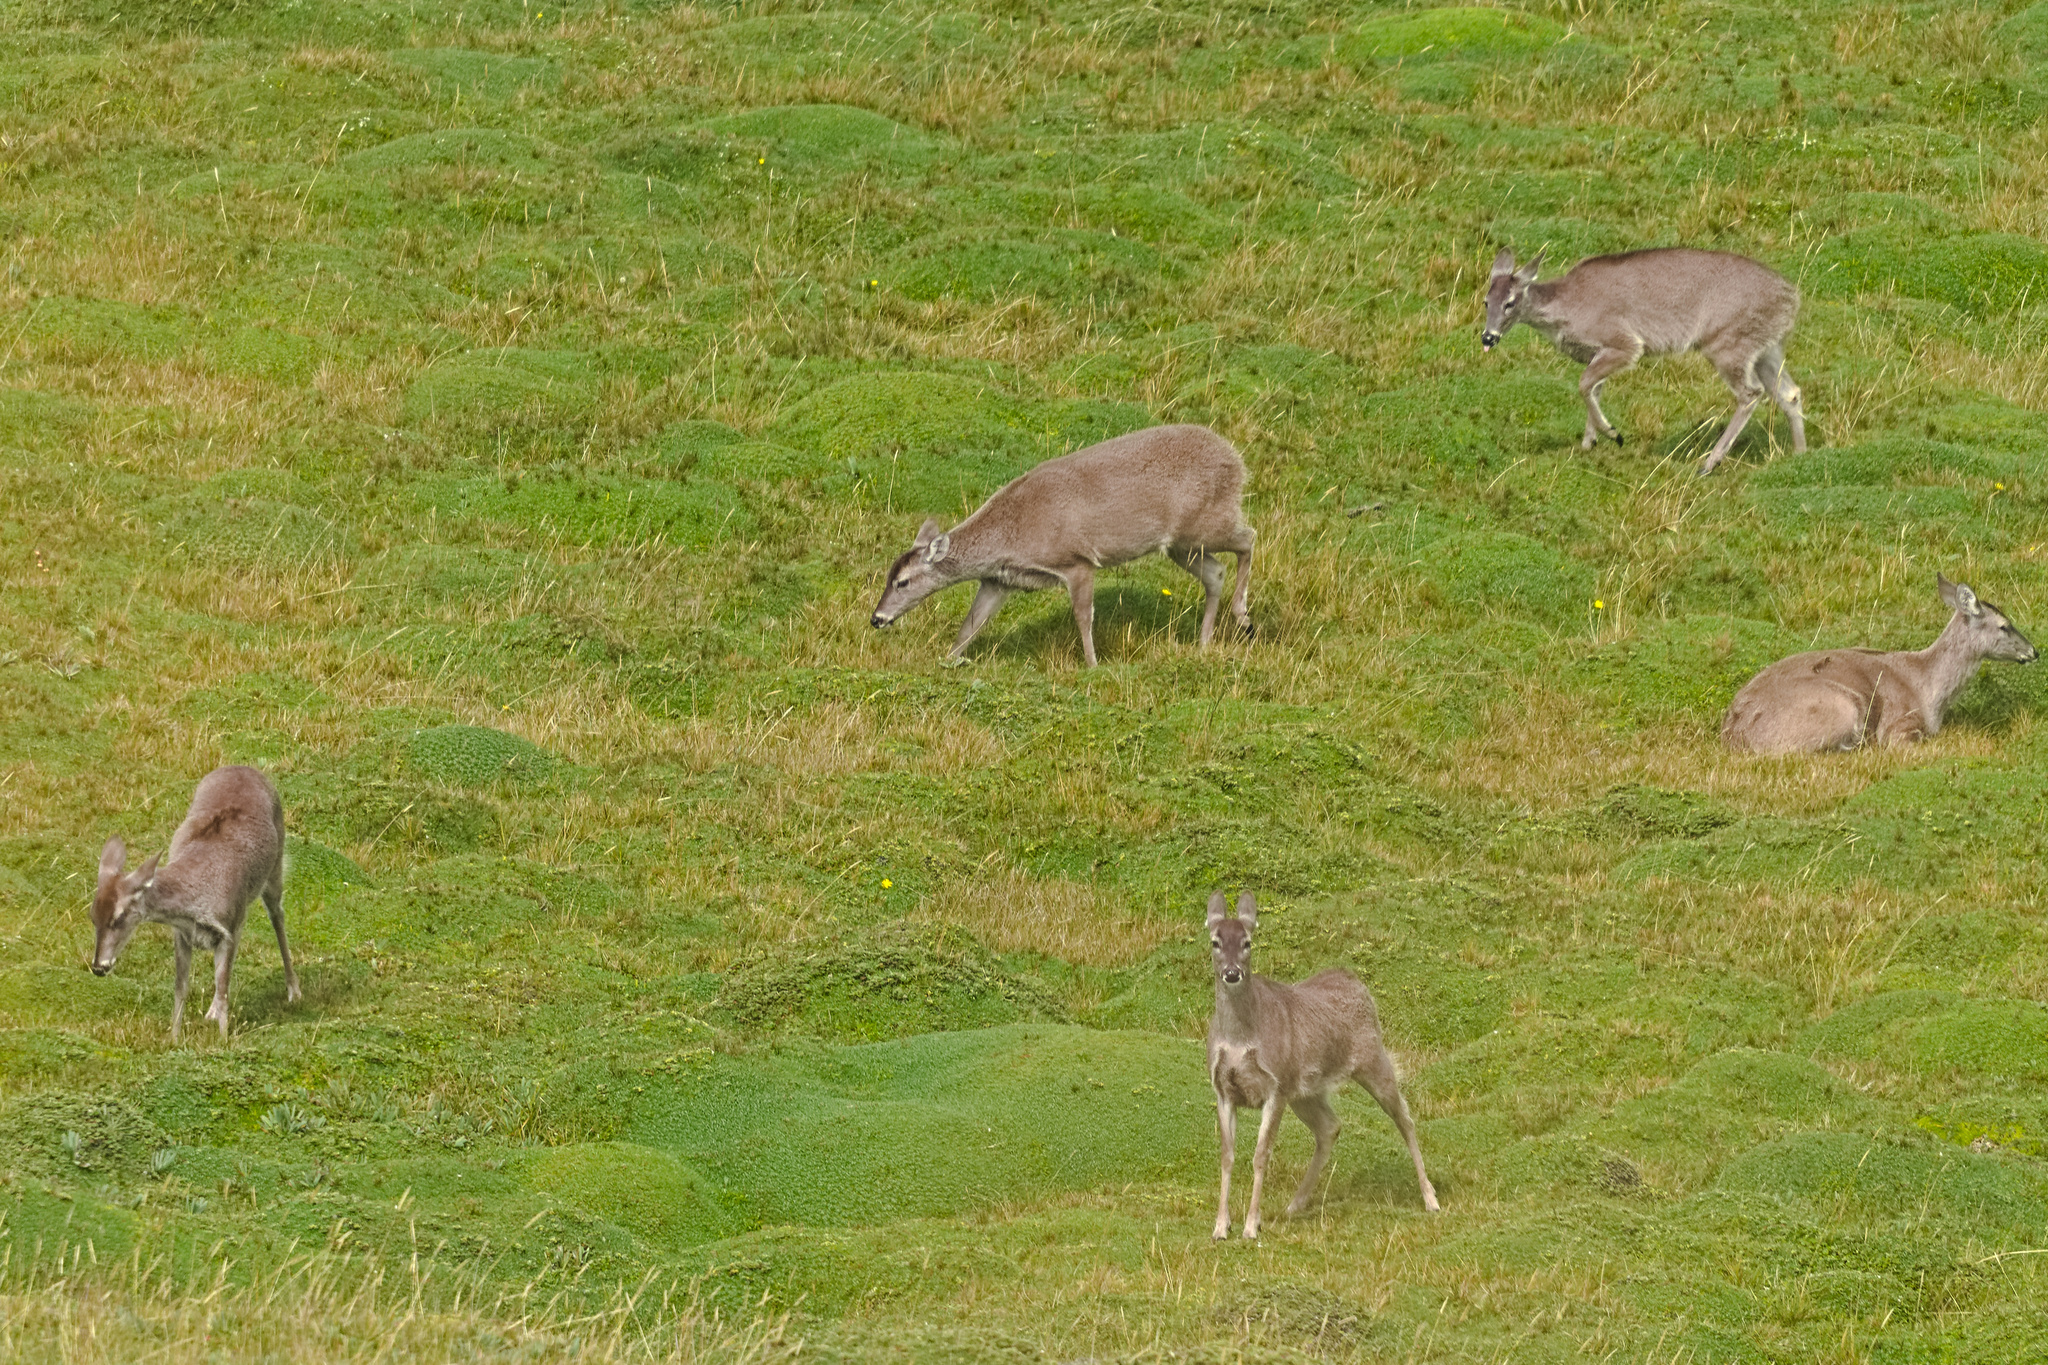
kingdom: Animalia
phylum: Chordata
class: Mammalia
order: Artiodactyla
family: Cervidae
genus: Odocoileus
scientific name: Odocoileus virginianus
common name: White-tailed deer
